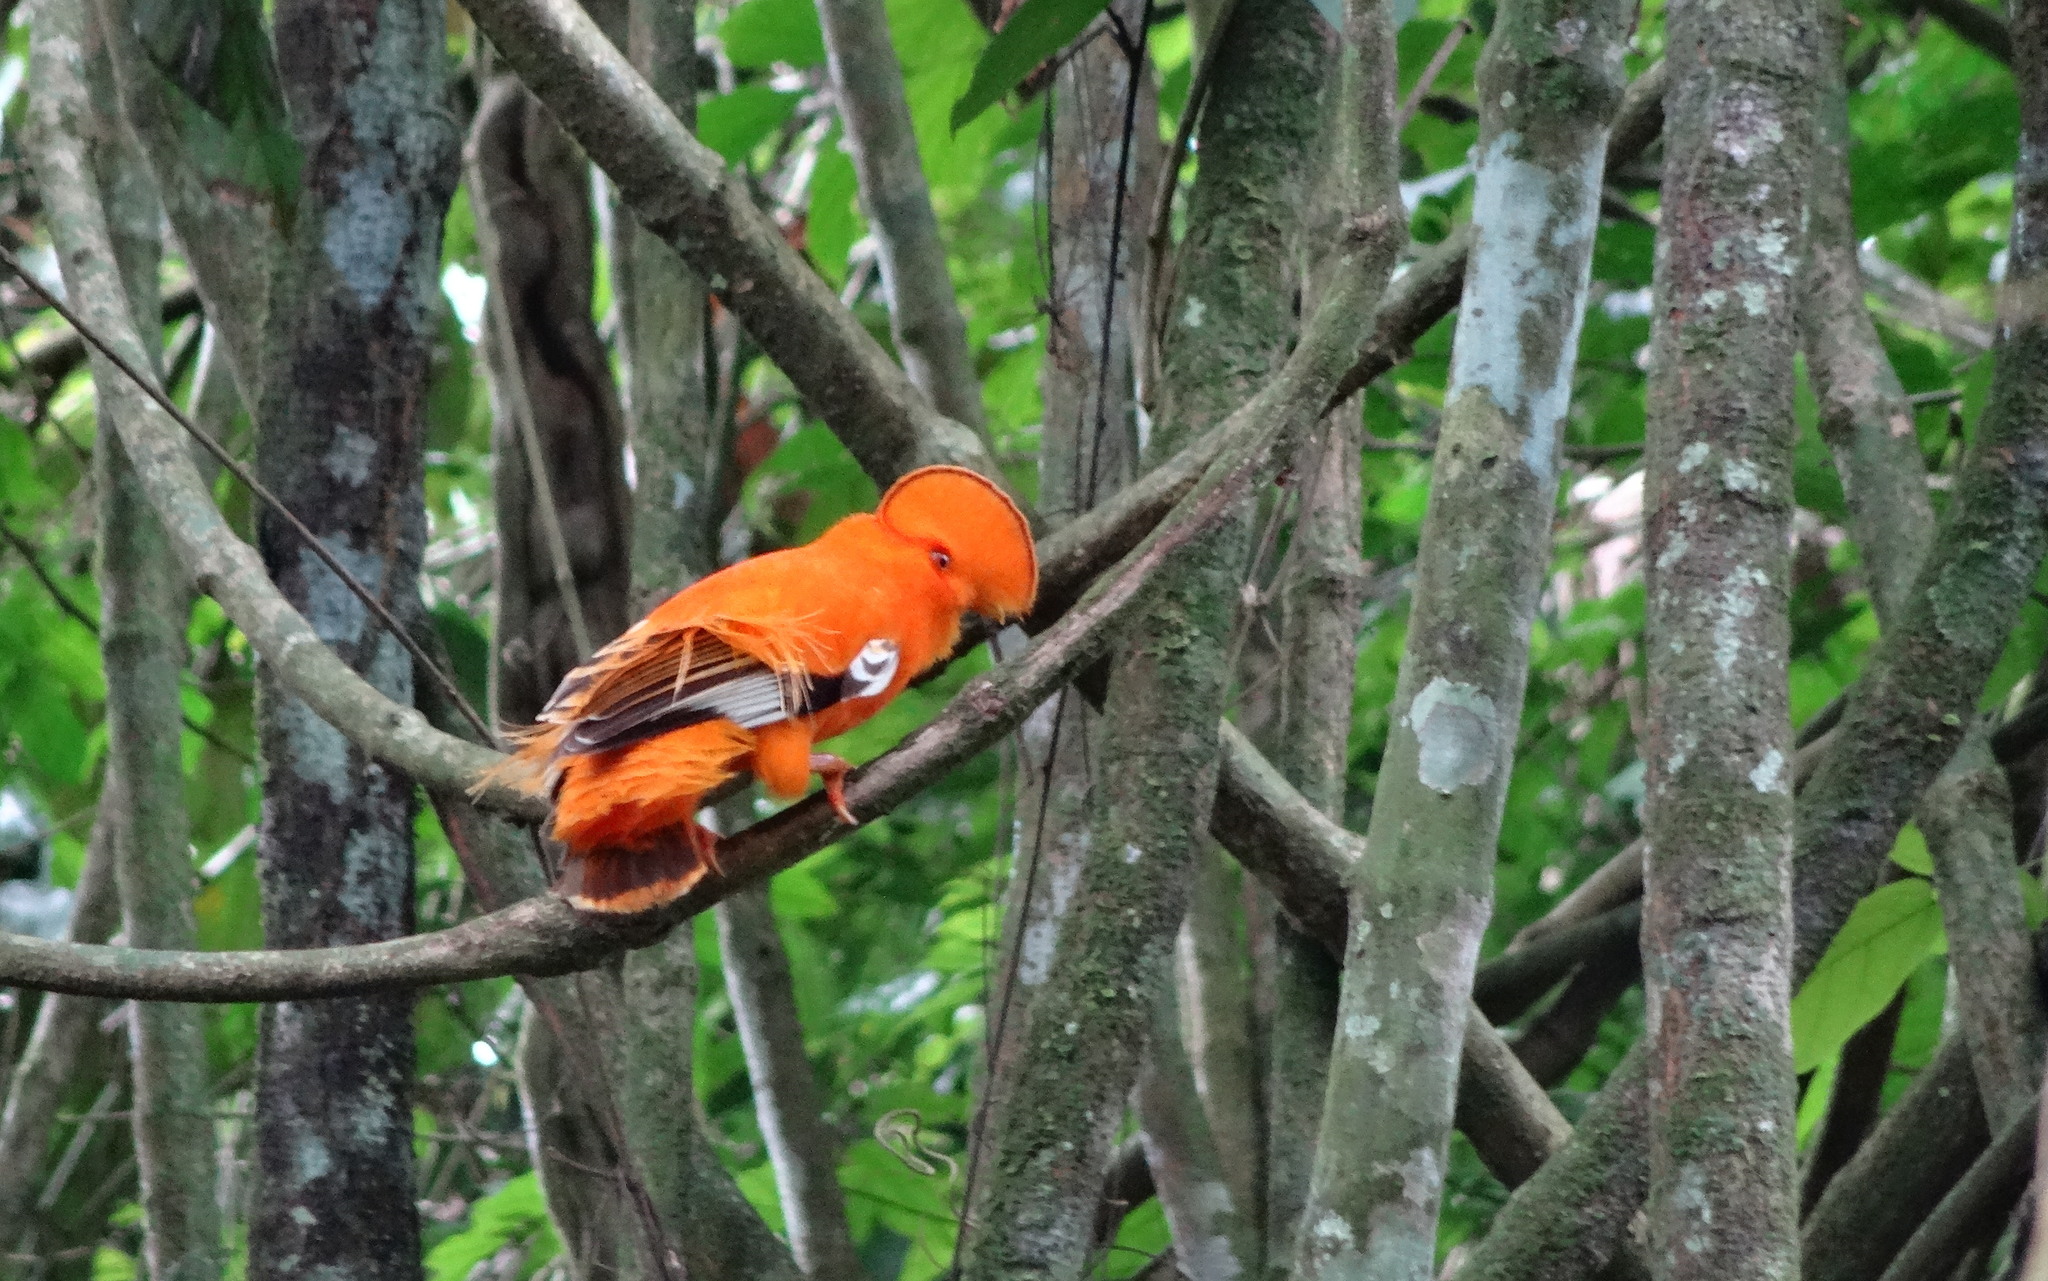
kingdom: Animalia
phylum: Chordata
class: Aves
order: Passeriformes
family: Cotingidae
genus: Rupicola
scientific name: Rupicola rupicola
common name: Guianan cock-of-the-rock
